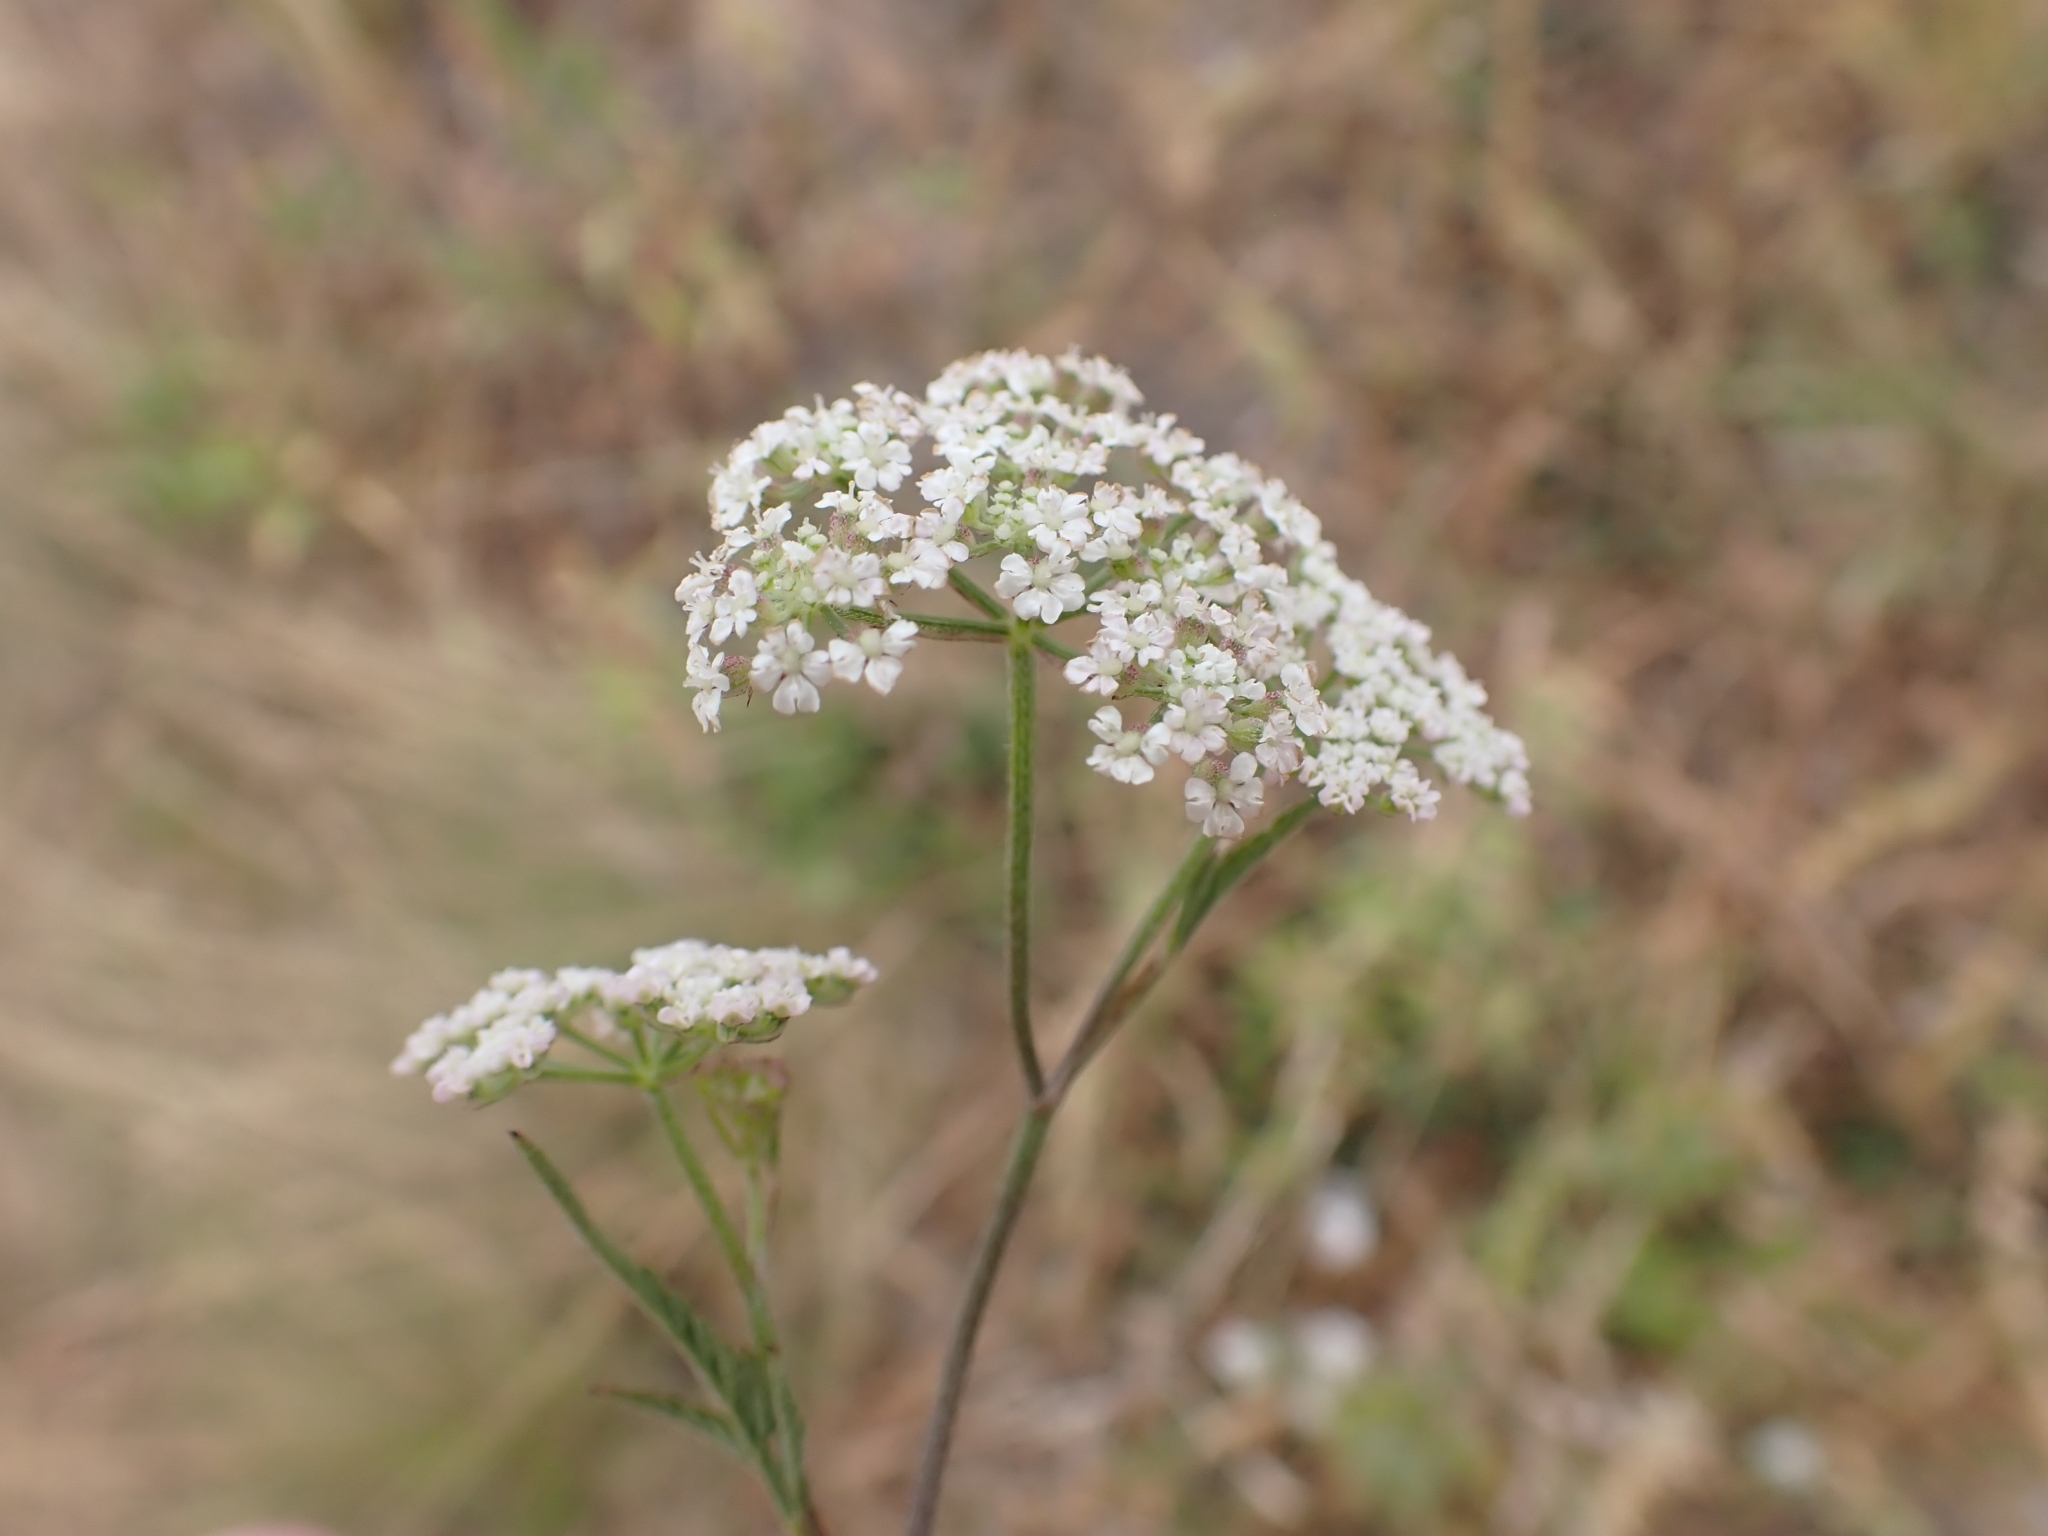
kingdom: Plantae
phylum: Tracheophyta
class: Magnoliopsida
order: Apiales
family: Apiaceae
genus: Torilis
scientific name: Torilis japonica
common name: Upright hedge-parsley
